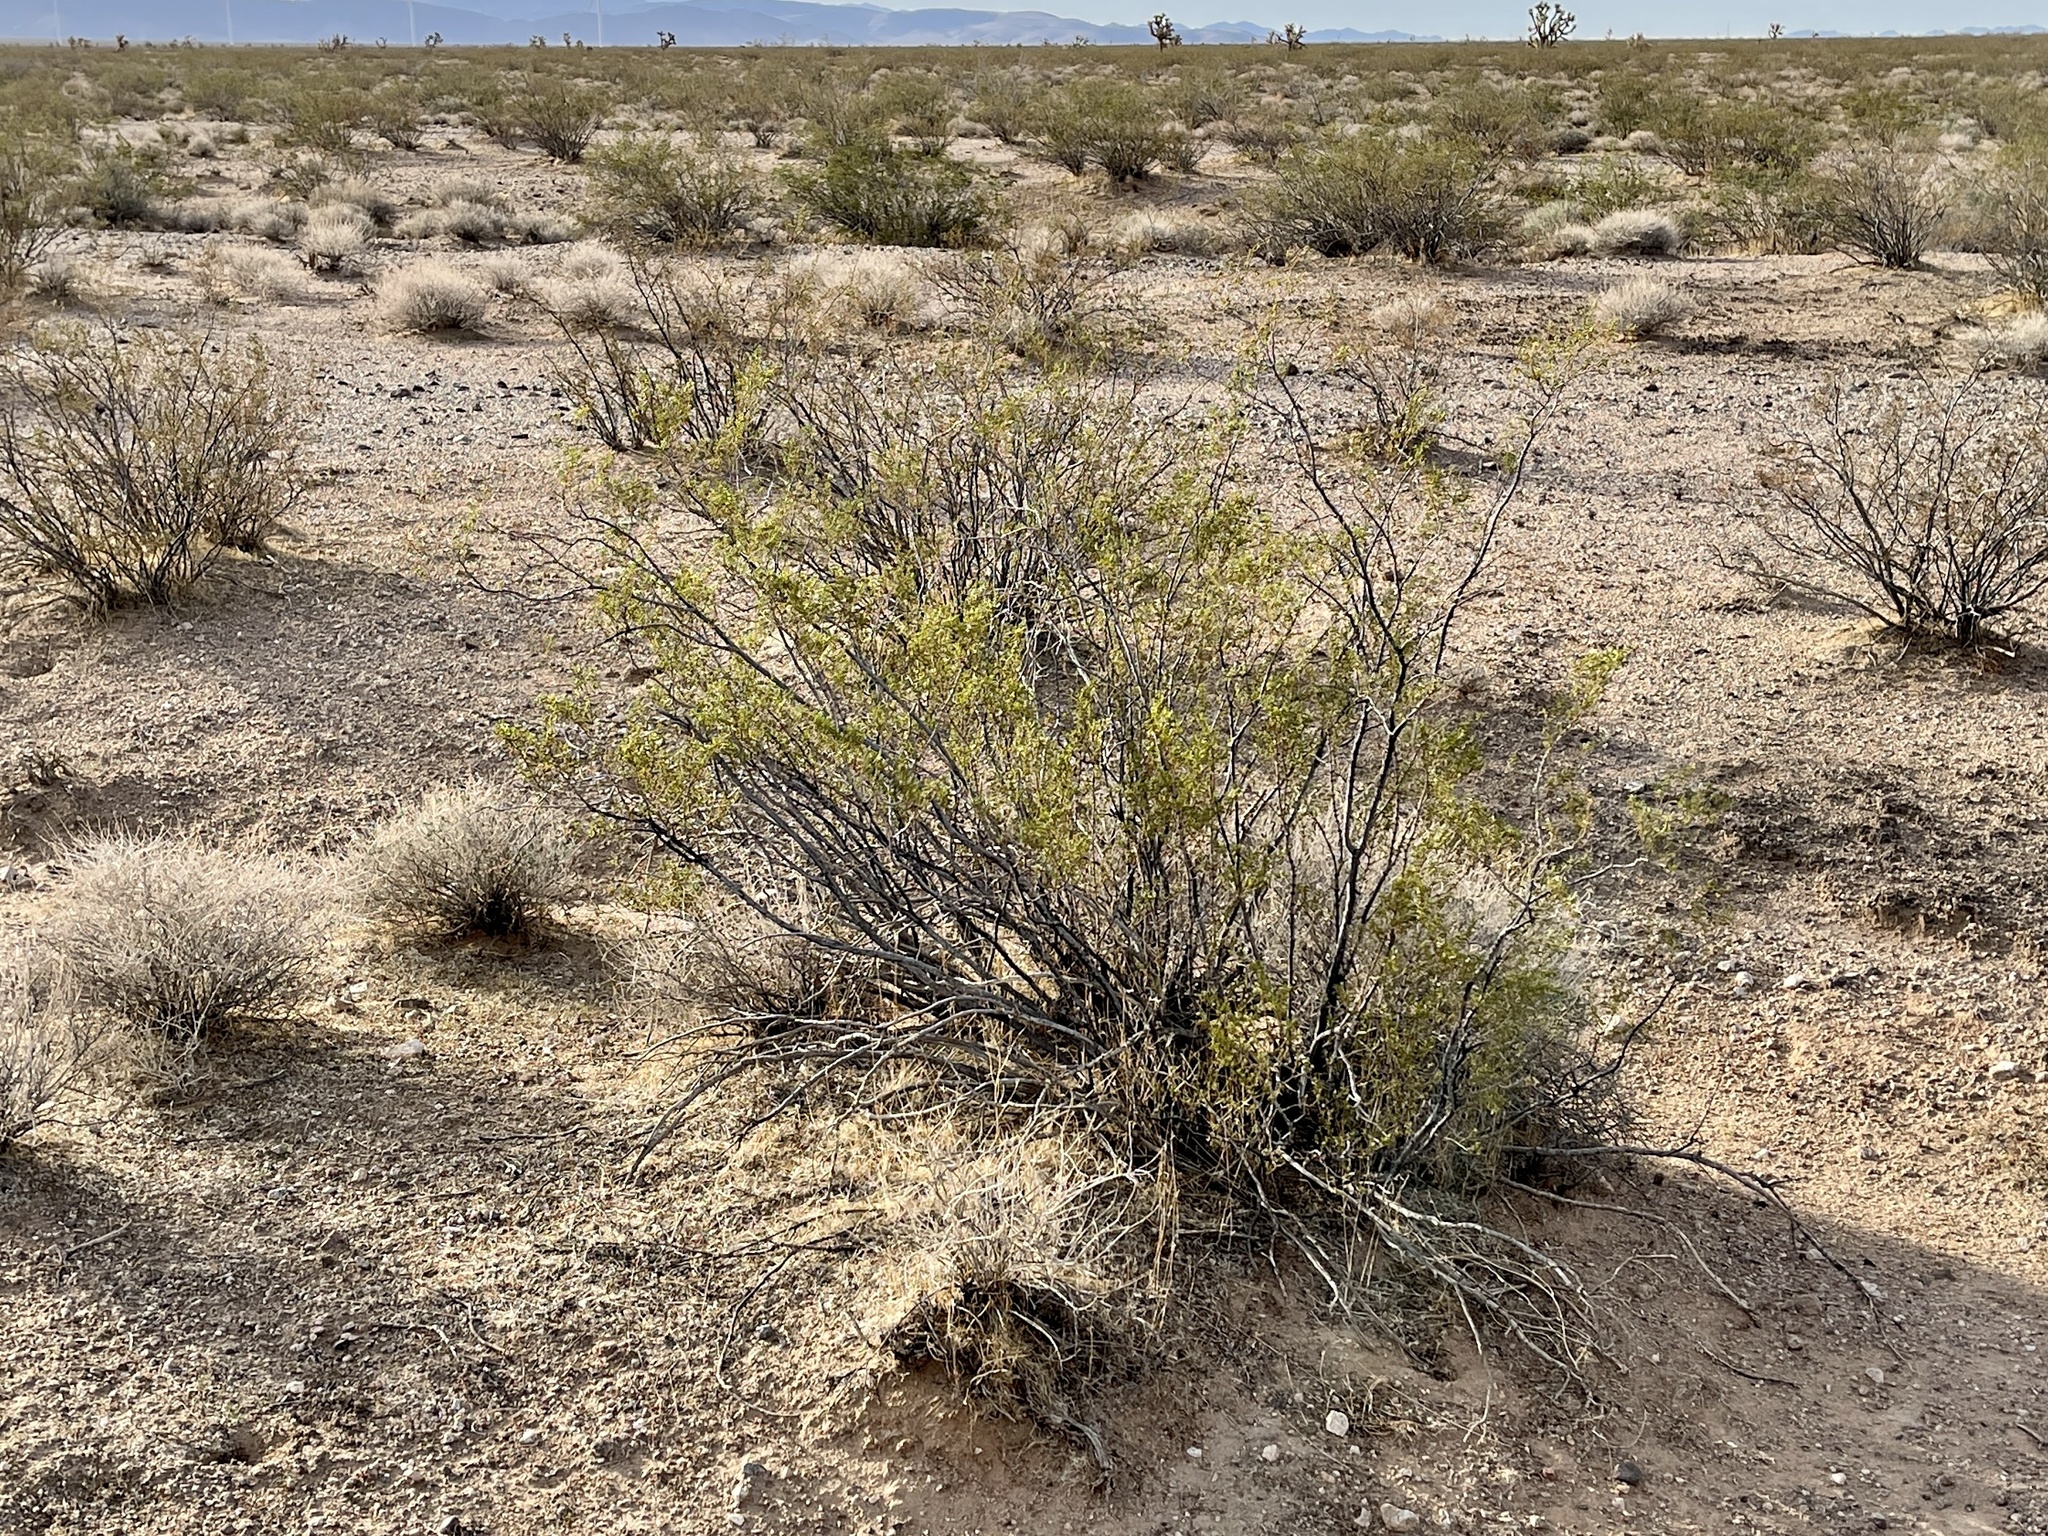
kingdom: Plantae
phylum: Tracheophyta
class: Magnoliopsida
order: Zygophyllales
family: Zygophyllaceae
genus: Larrea
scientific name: Larrea tridentata
